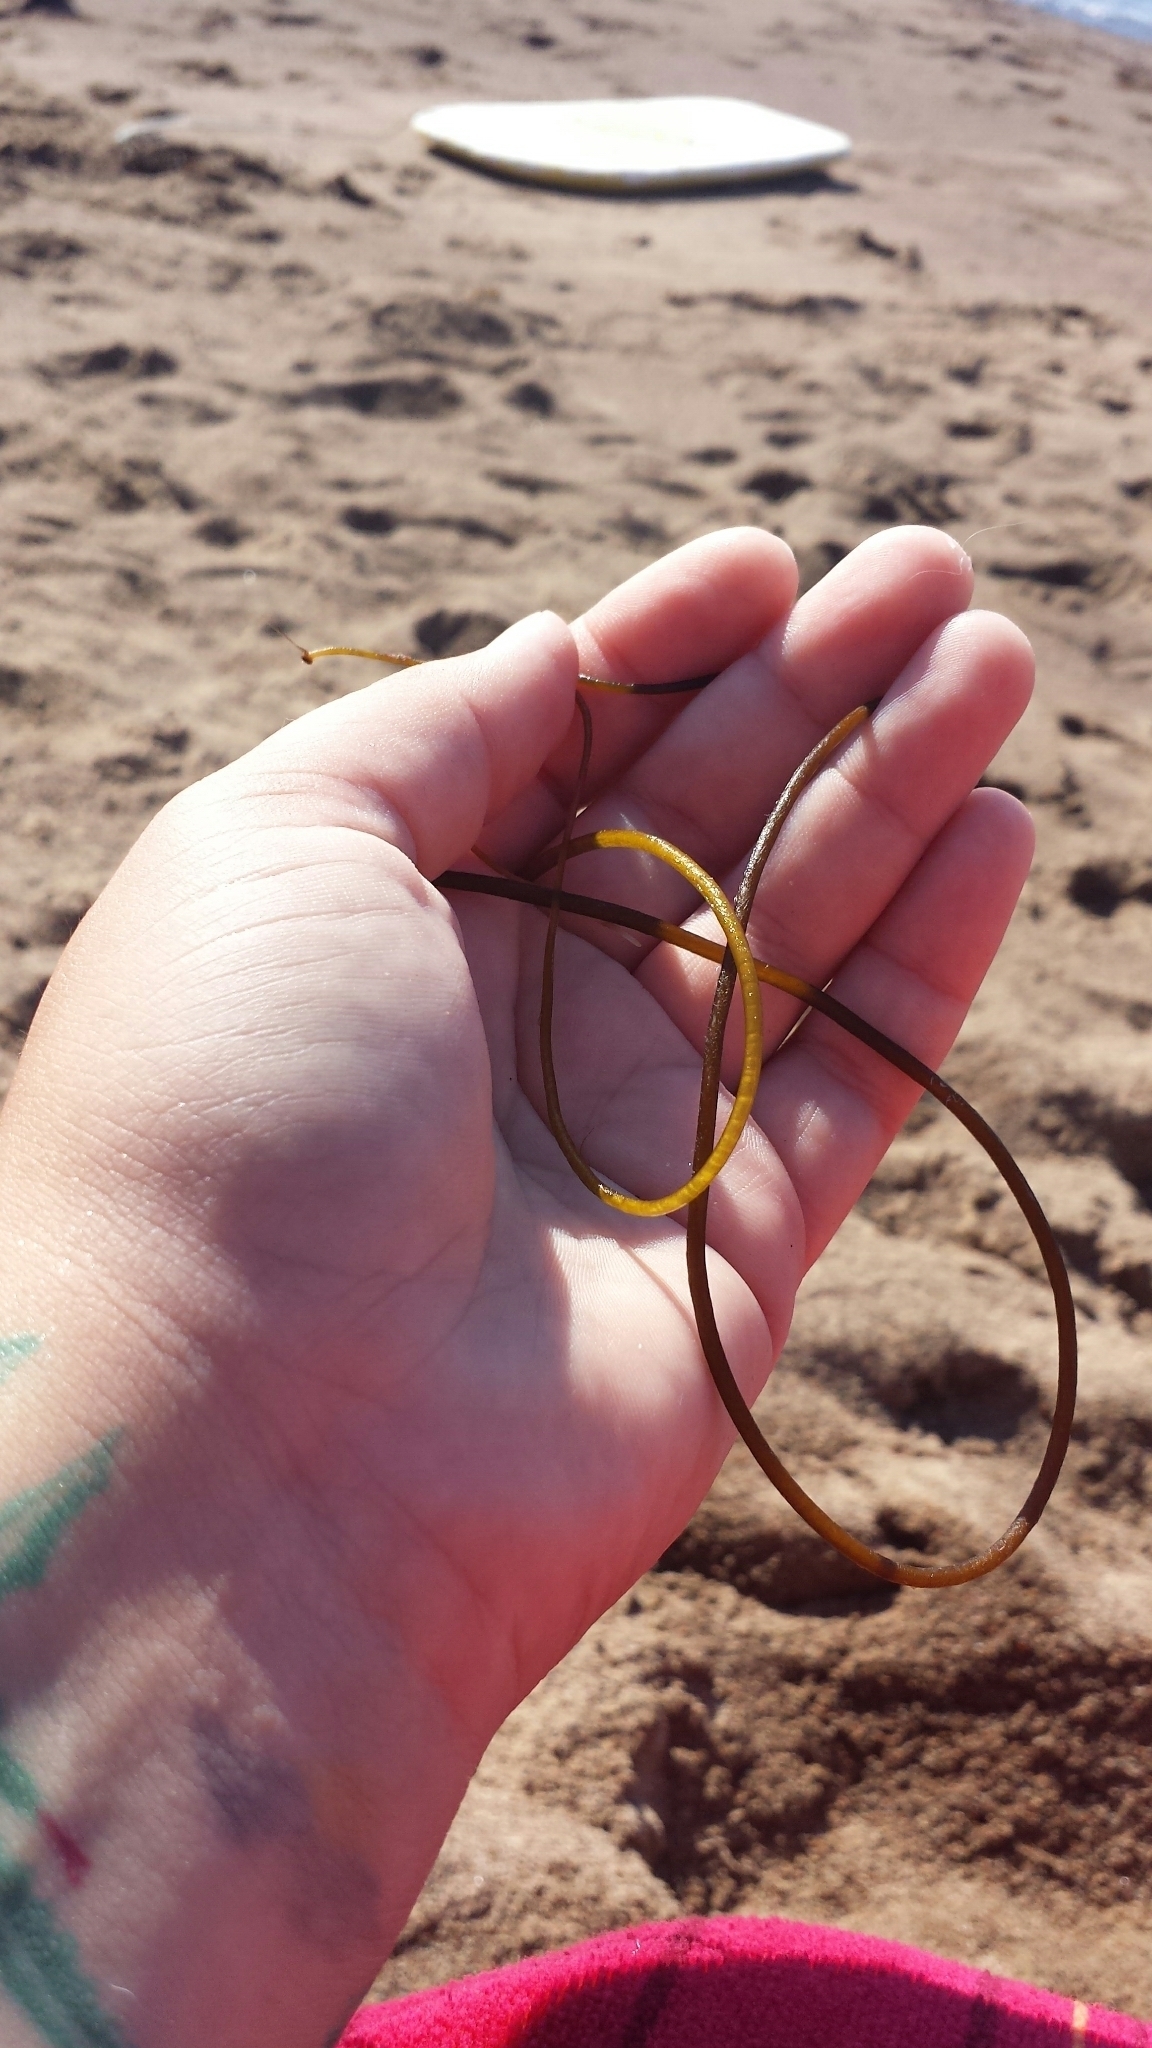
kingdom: Chromista
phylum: Ochrophyta
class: Phaeophyceae
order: Laminariales
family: Chordaceae
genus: Chorda
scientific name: Chorda filum
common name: Mermaid's tresses
